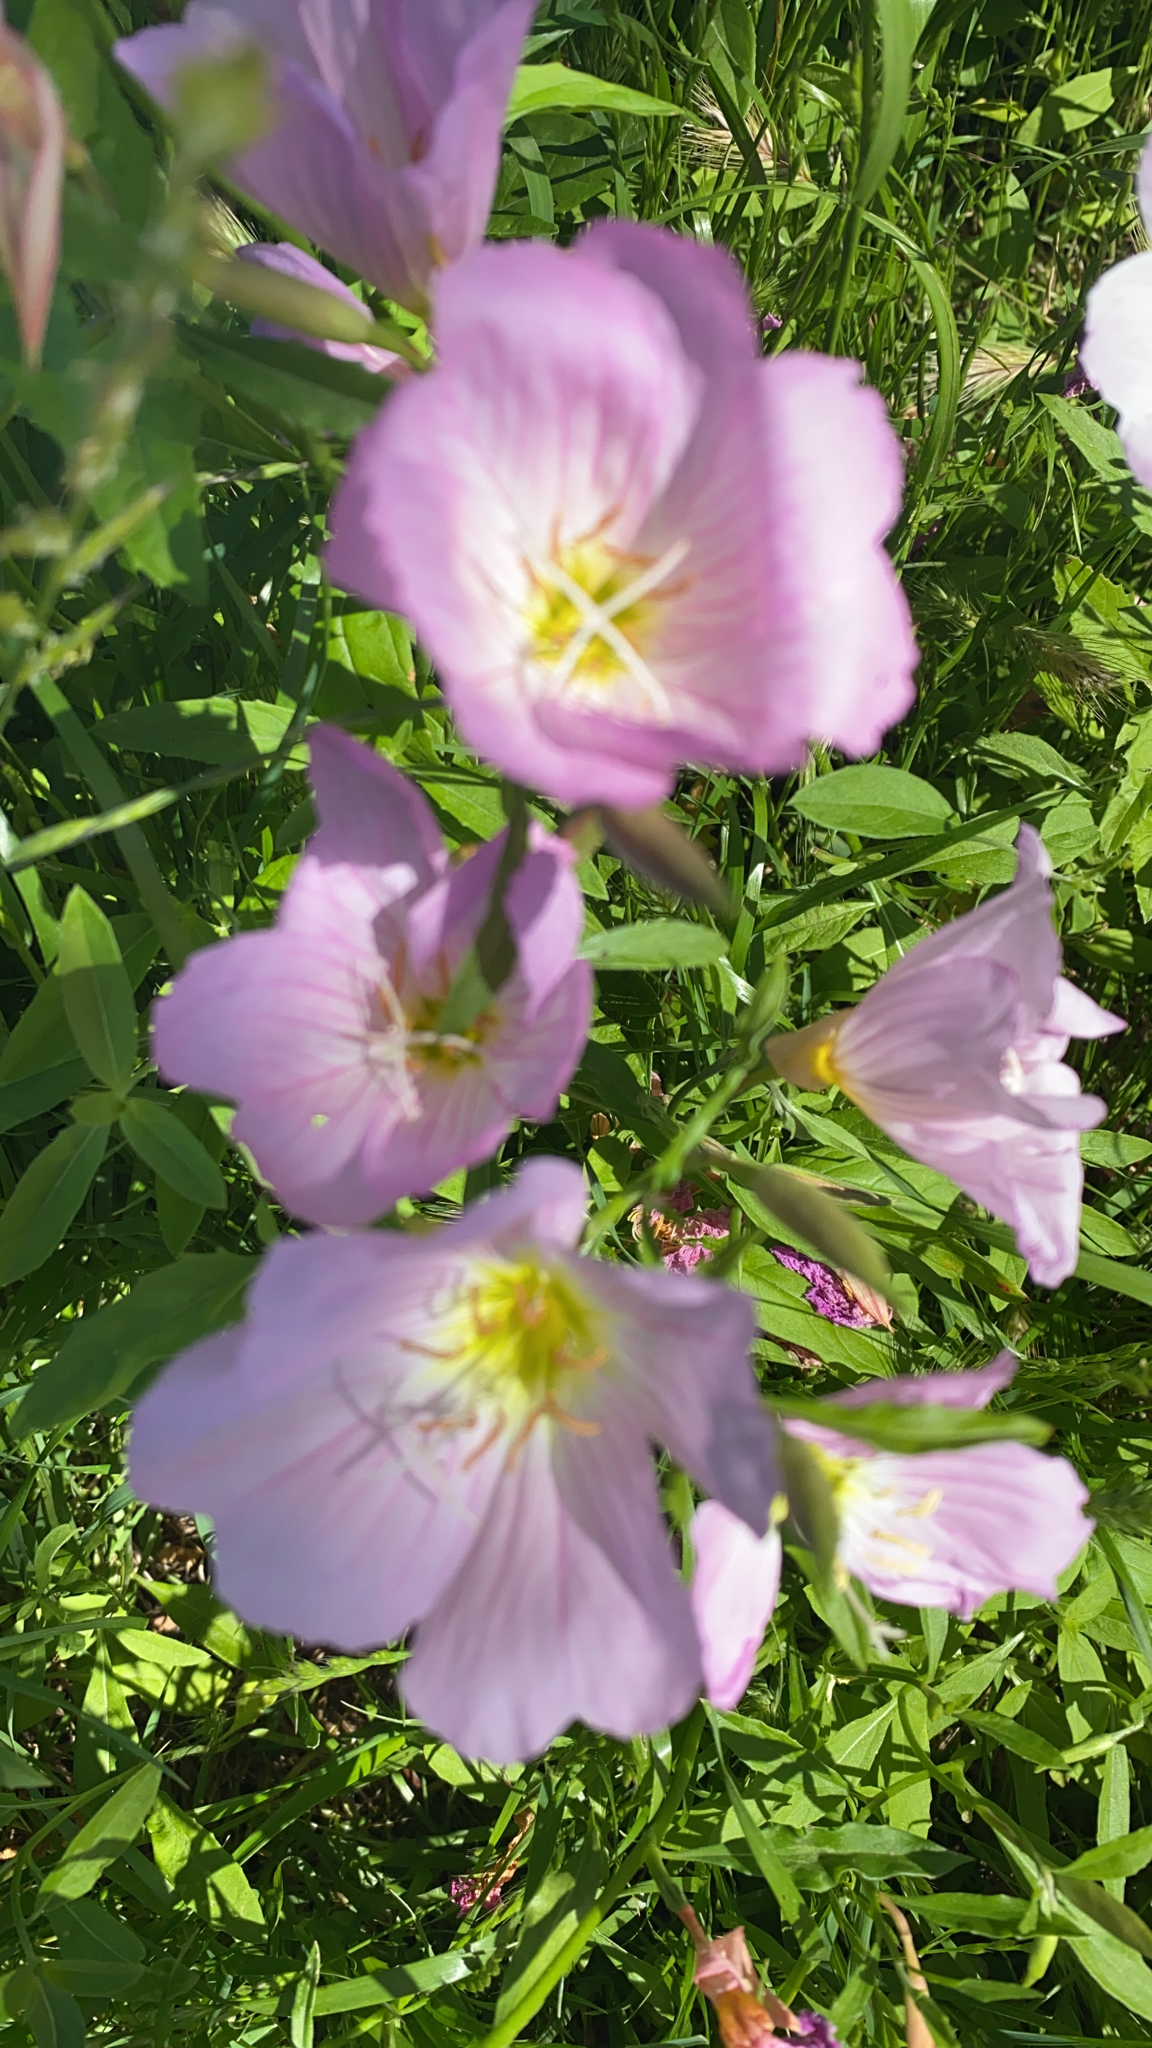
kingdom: Plantae
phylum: Tracheophyta
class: Magnoliopsida
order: Myrtales
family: Onagraceae
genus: Oenothera
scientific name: Oenothera speciosa
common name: White evening-primrose
